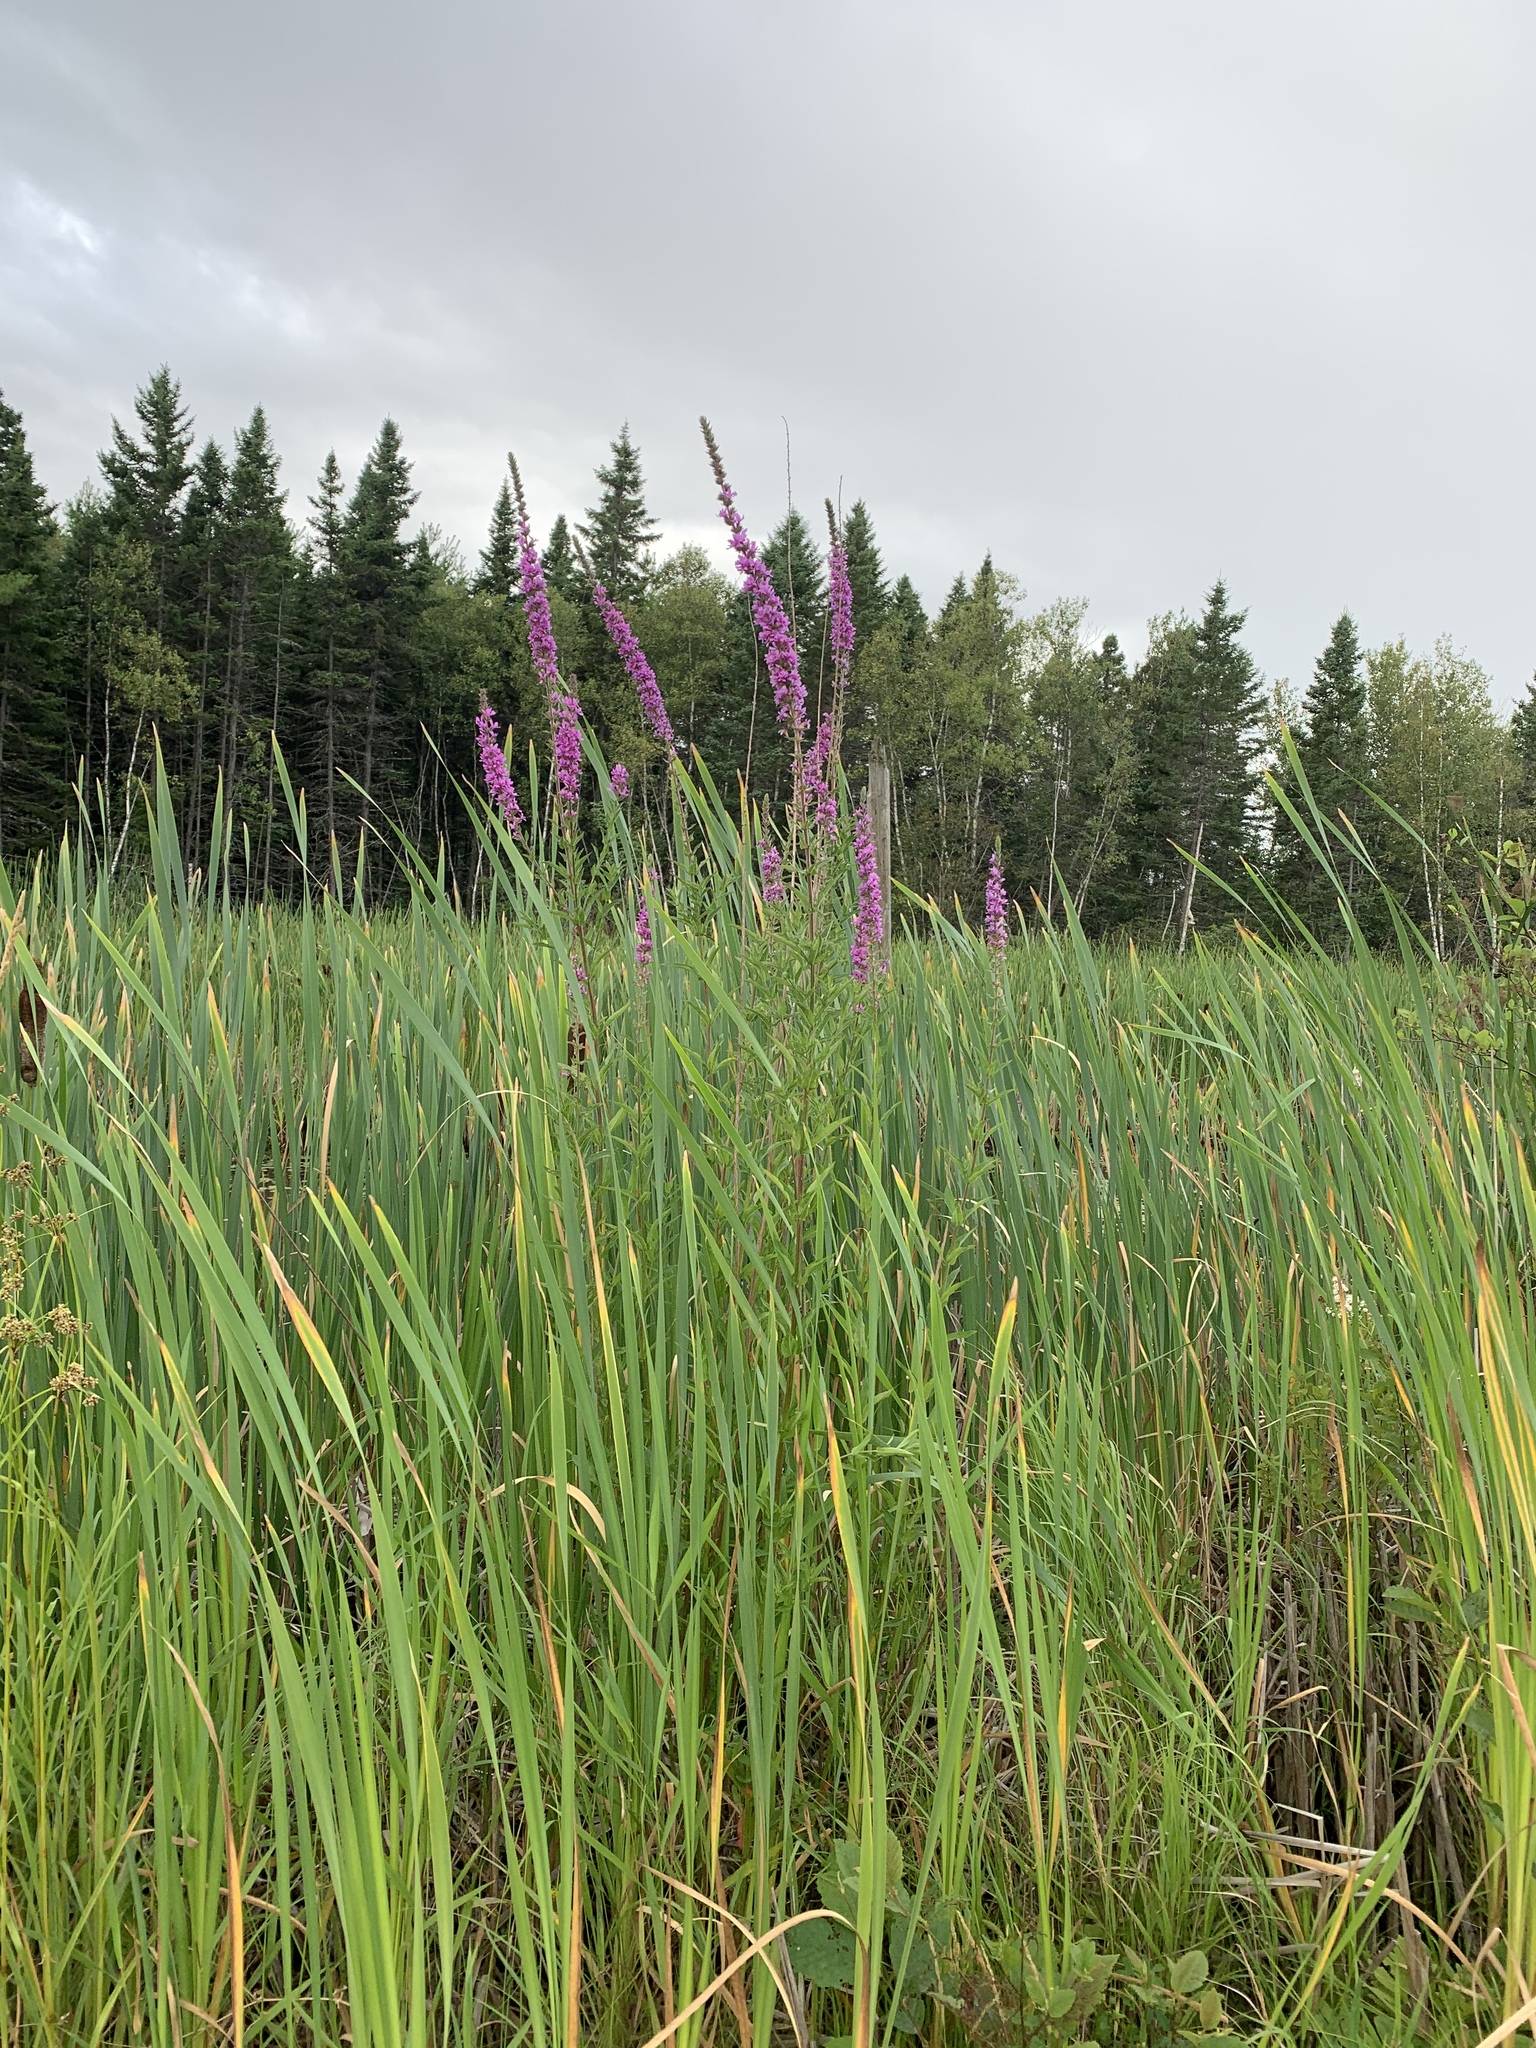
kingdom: Plantae
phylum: Tracheophyta
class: Magnoliopsida
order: Myrtales
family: Lythraceae
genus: Lythrum
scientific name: Lythrum salicaria
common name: Purple loosestrife
